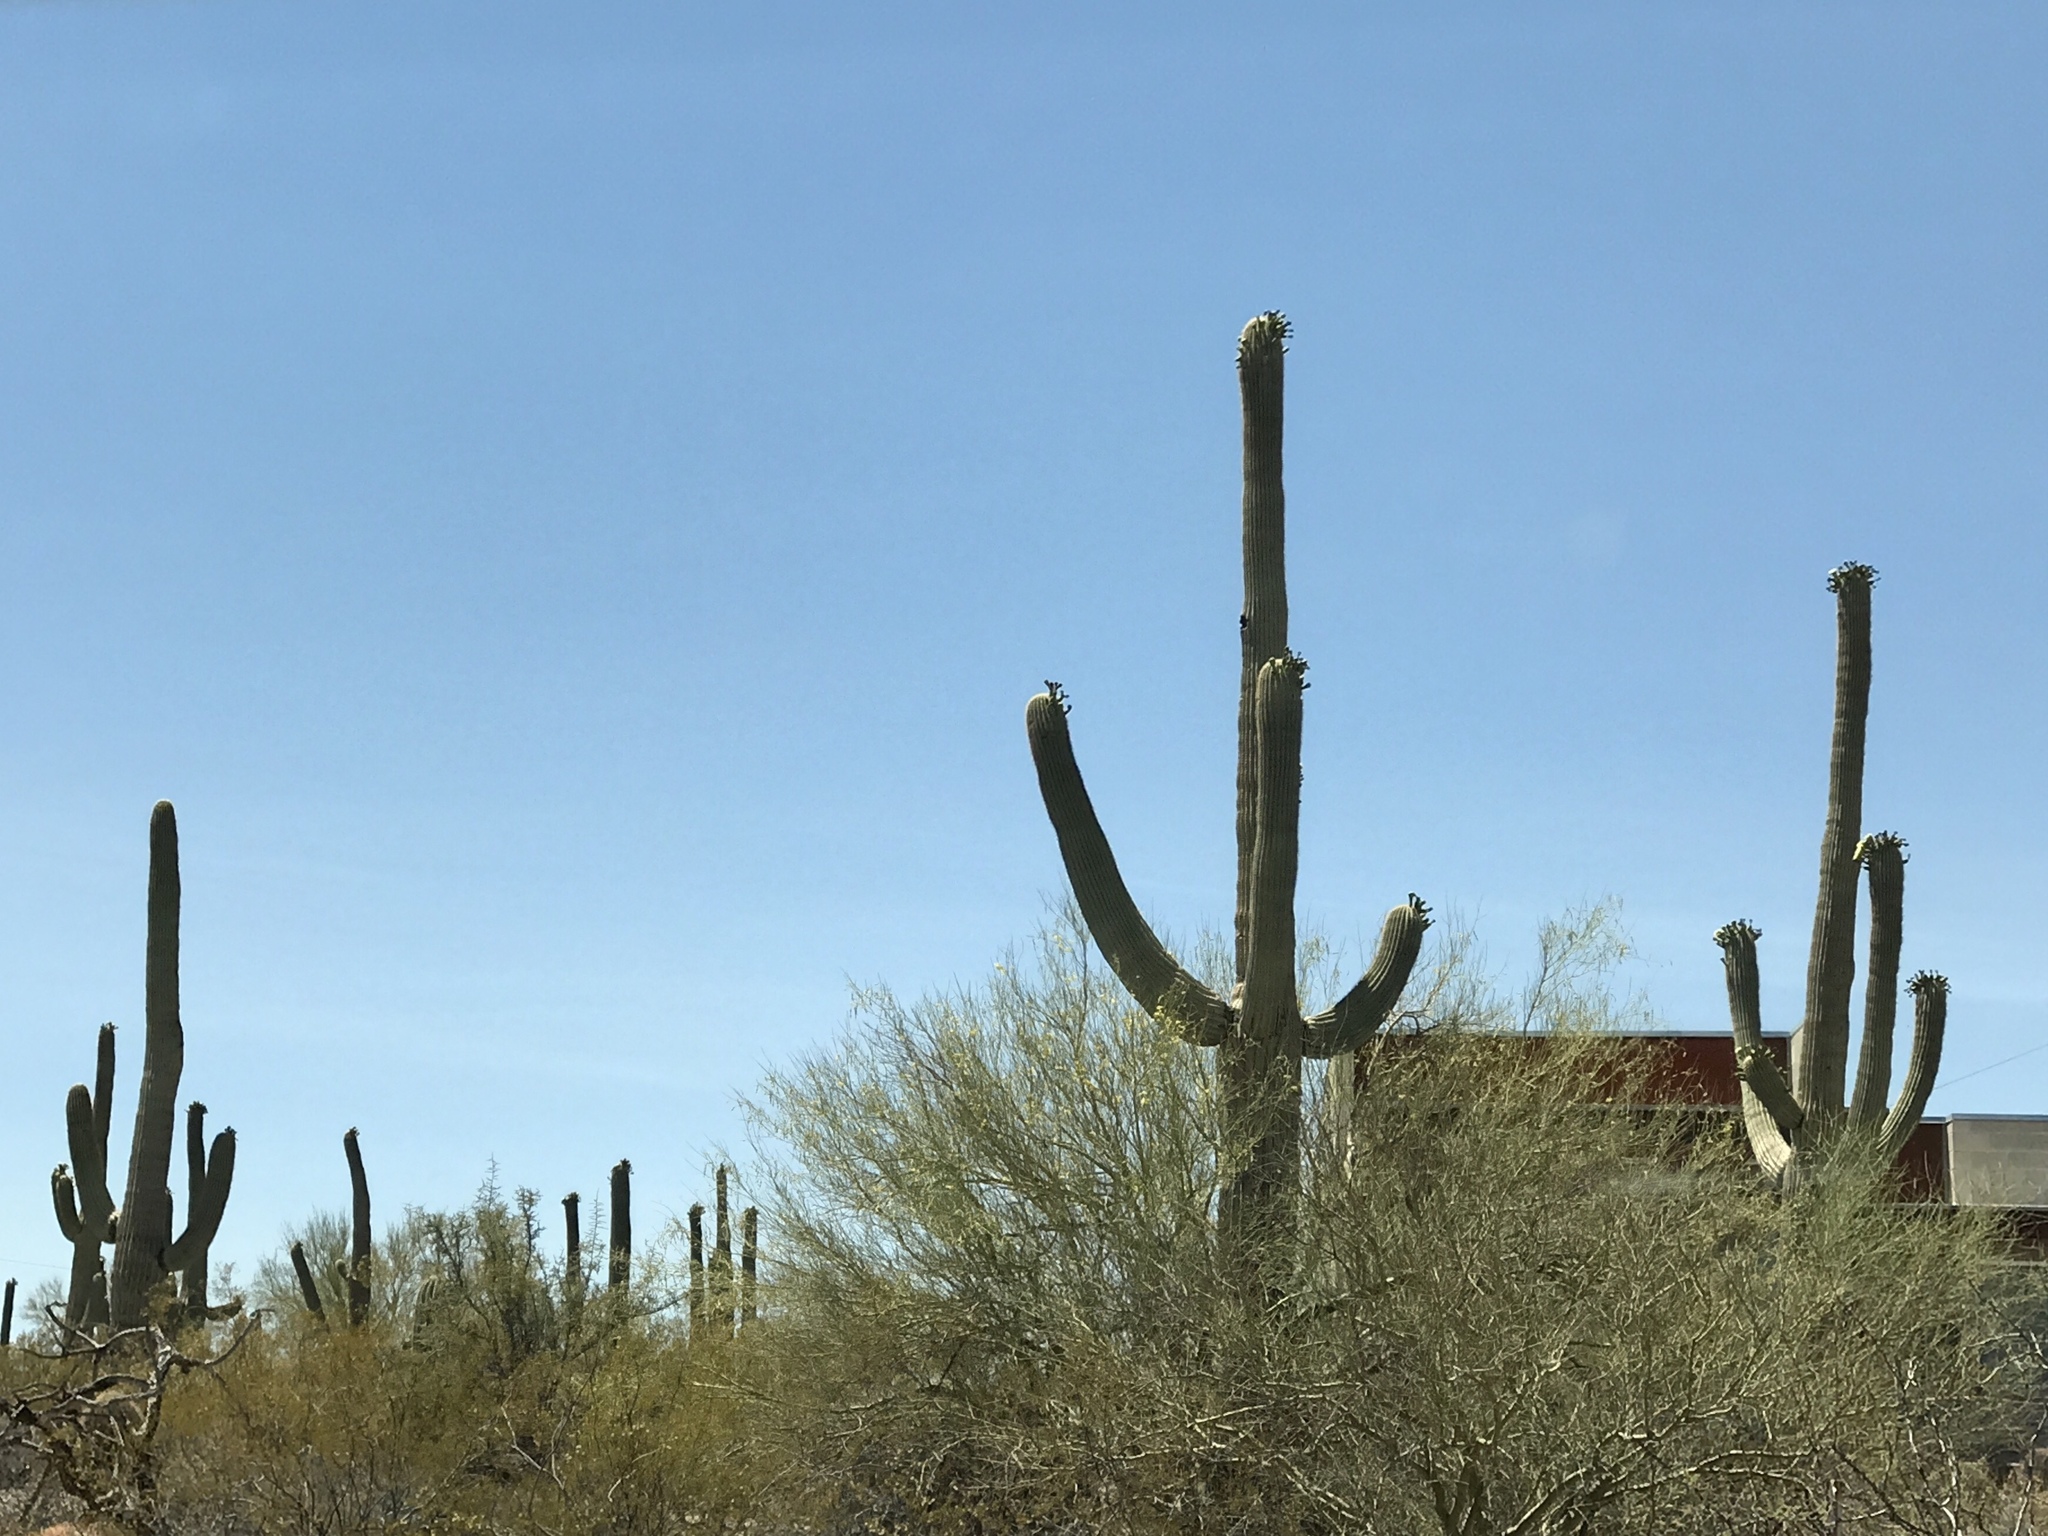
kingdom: Plantae
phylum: Tracheophyta
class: Magnoliopsida
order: Caryophyllales
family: Cactaceae
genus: Carnegiea
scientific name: Carnegiea gigantea
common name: Saguaro
